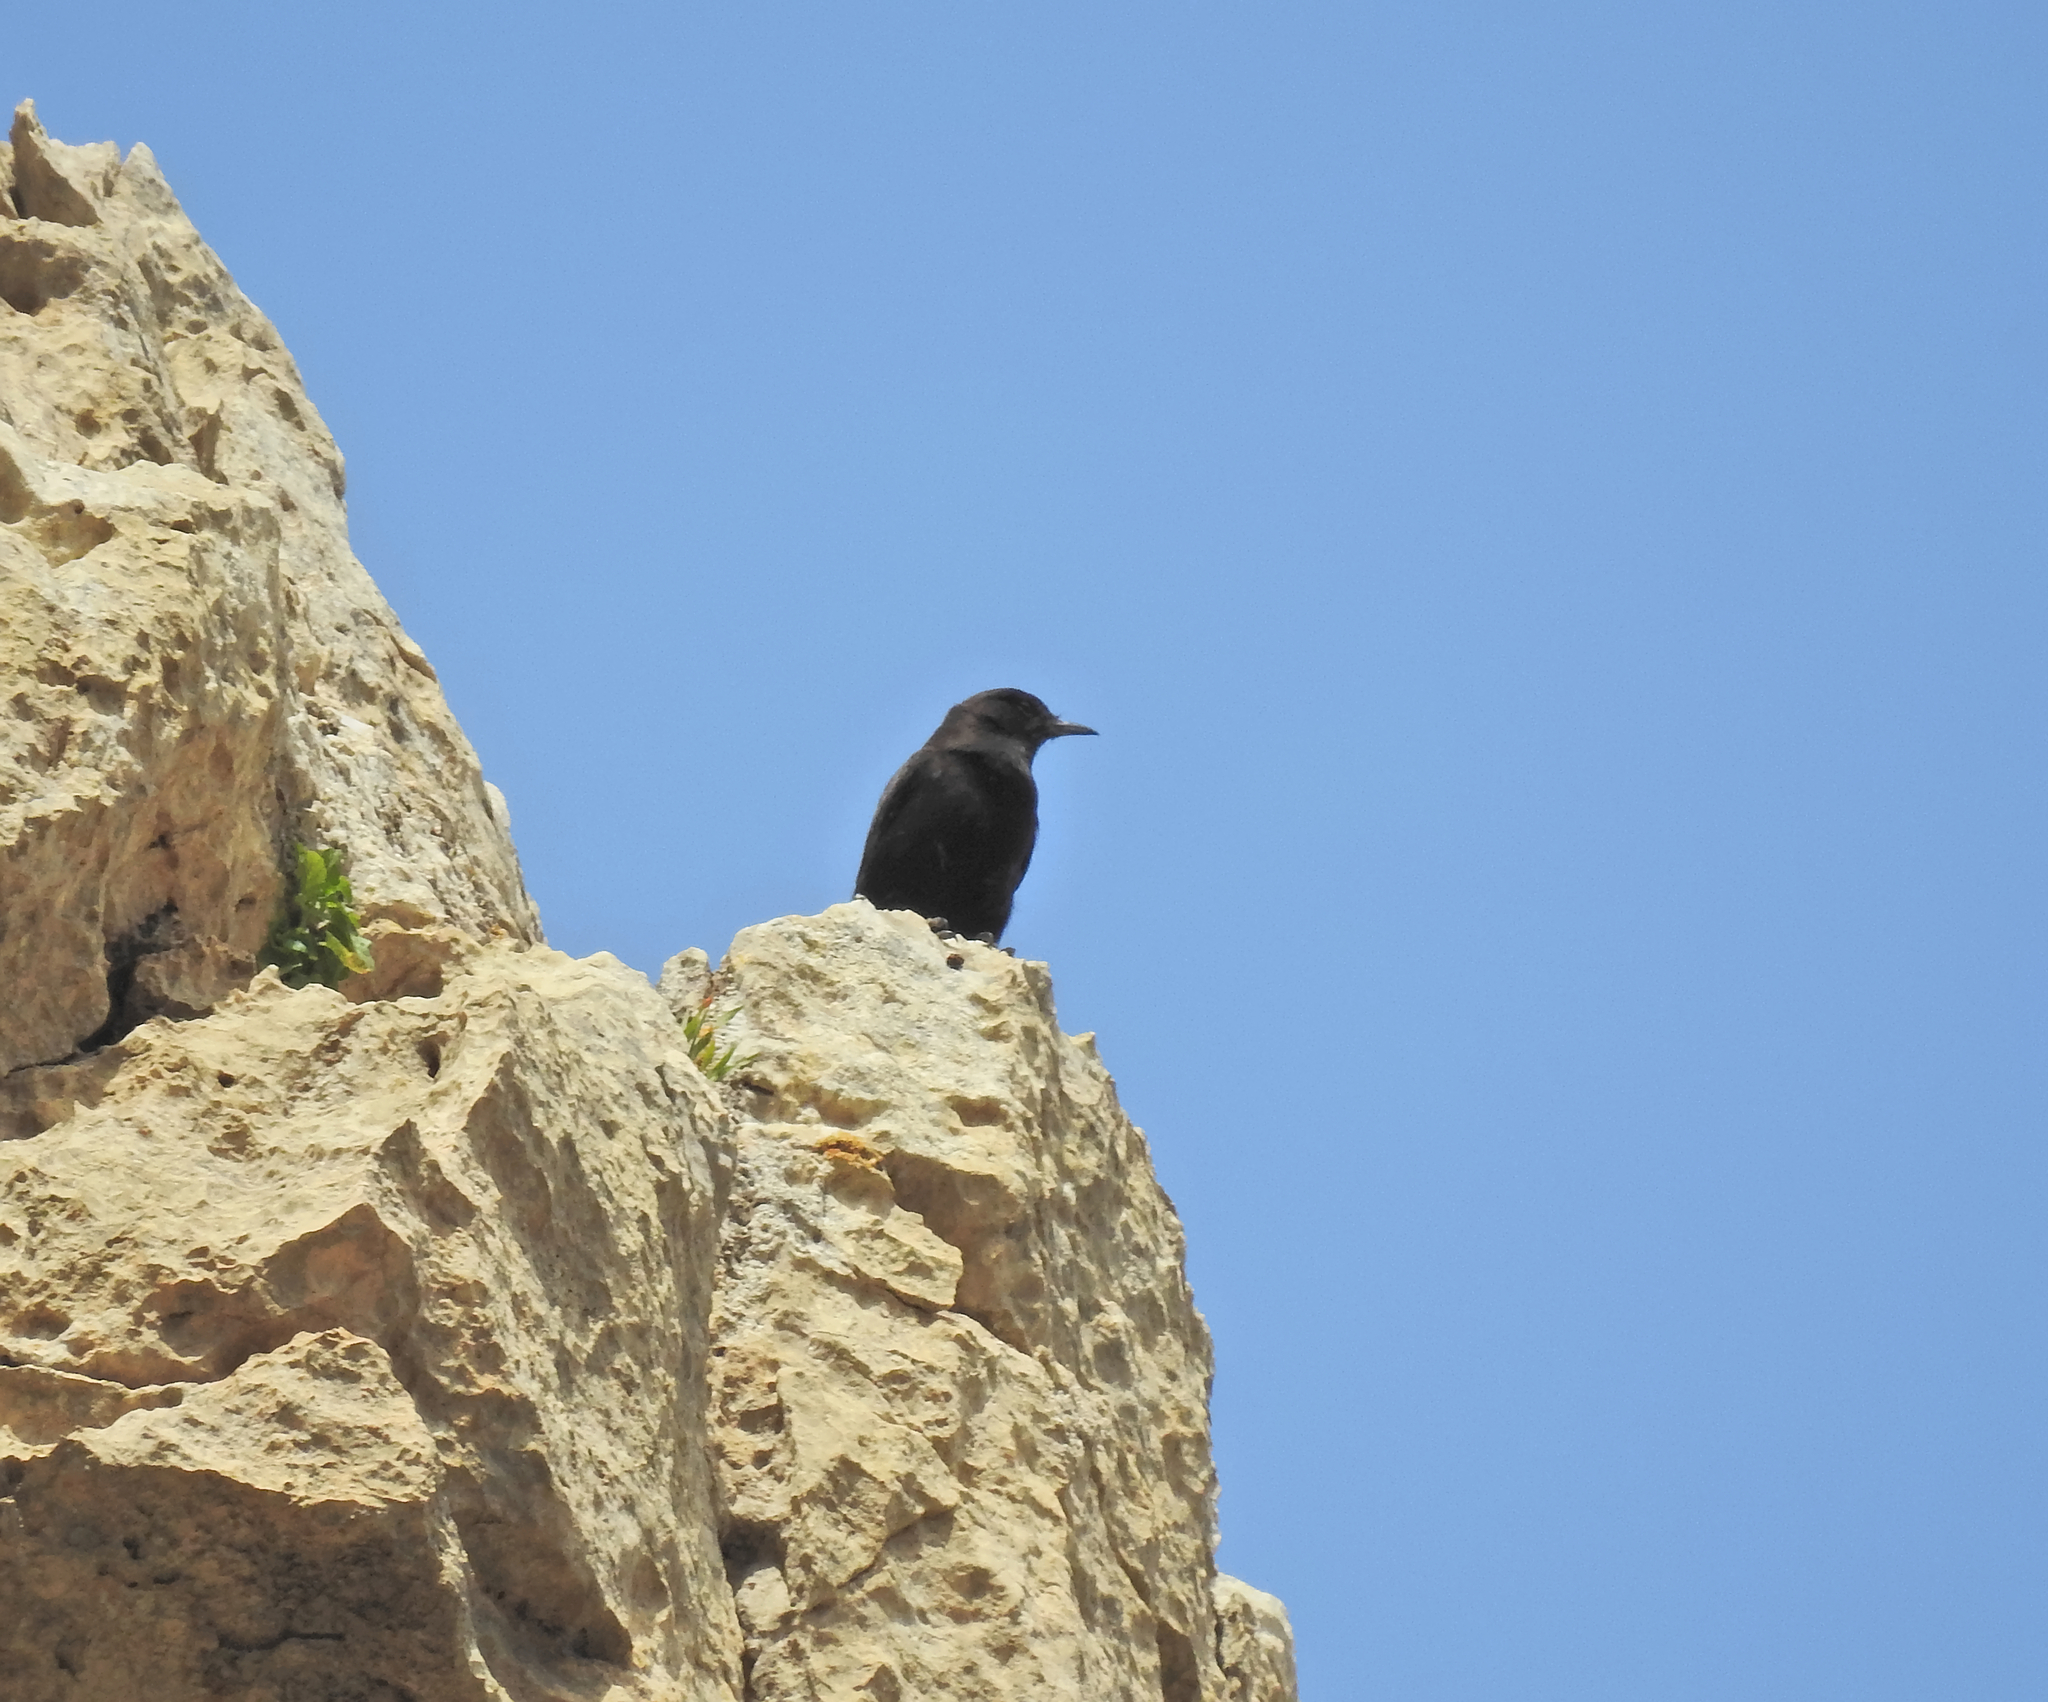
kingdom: Animalia
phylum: Chordata
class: Aves
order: Passeriformes
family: Muscicapidae
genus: Oenanthe
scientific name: Oenanthe leucura
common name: Black wheatear
